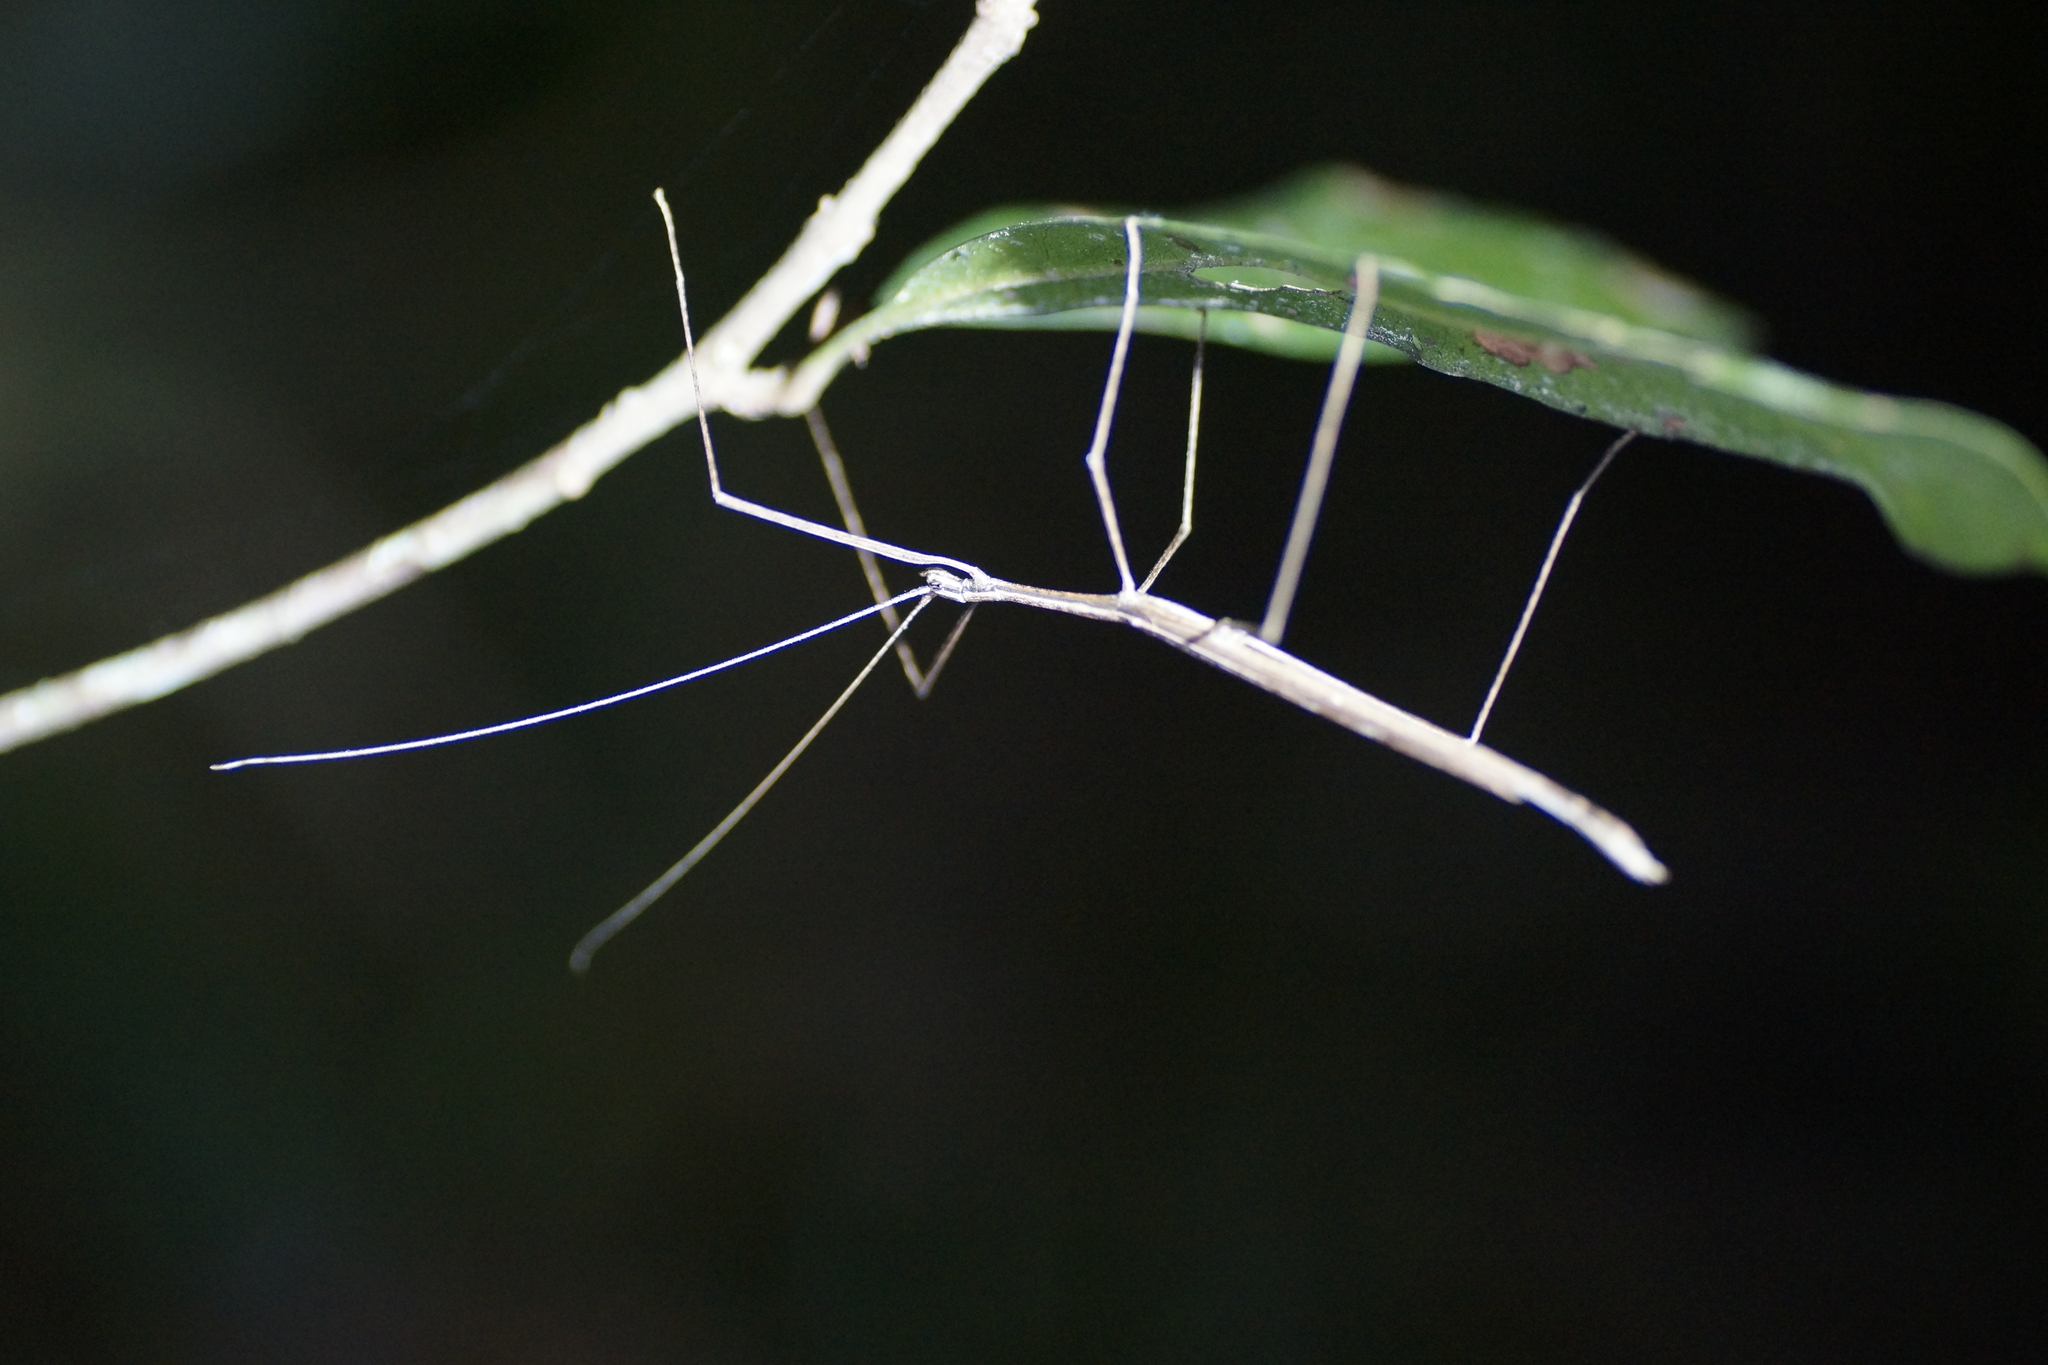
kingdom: Animalia
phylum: Arthropoda
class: Insecta
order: Phasmida
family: Lonchodidae
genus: Sipyloidea
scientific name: Sipyloidea larryi
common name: Hurricane larry stick-insect
